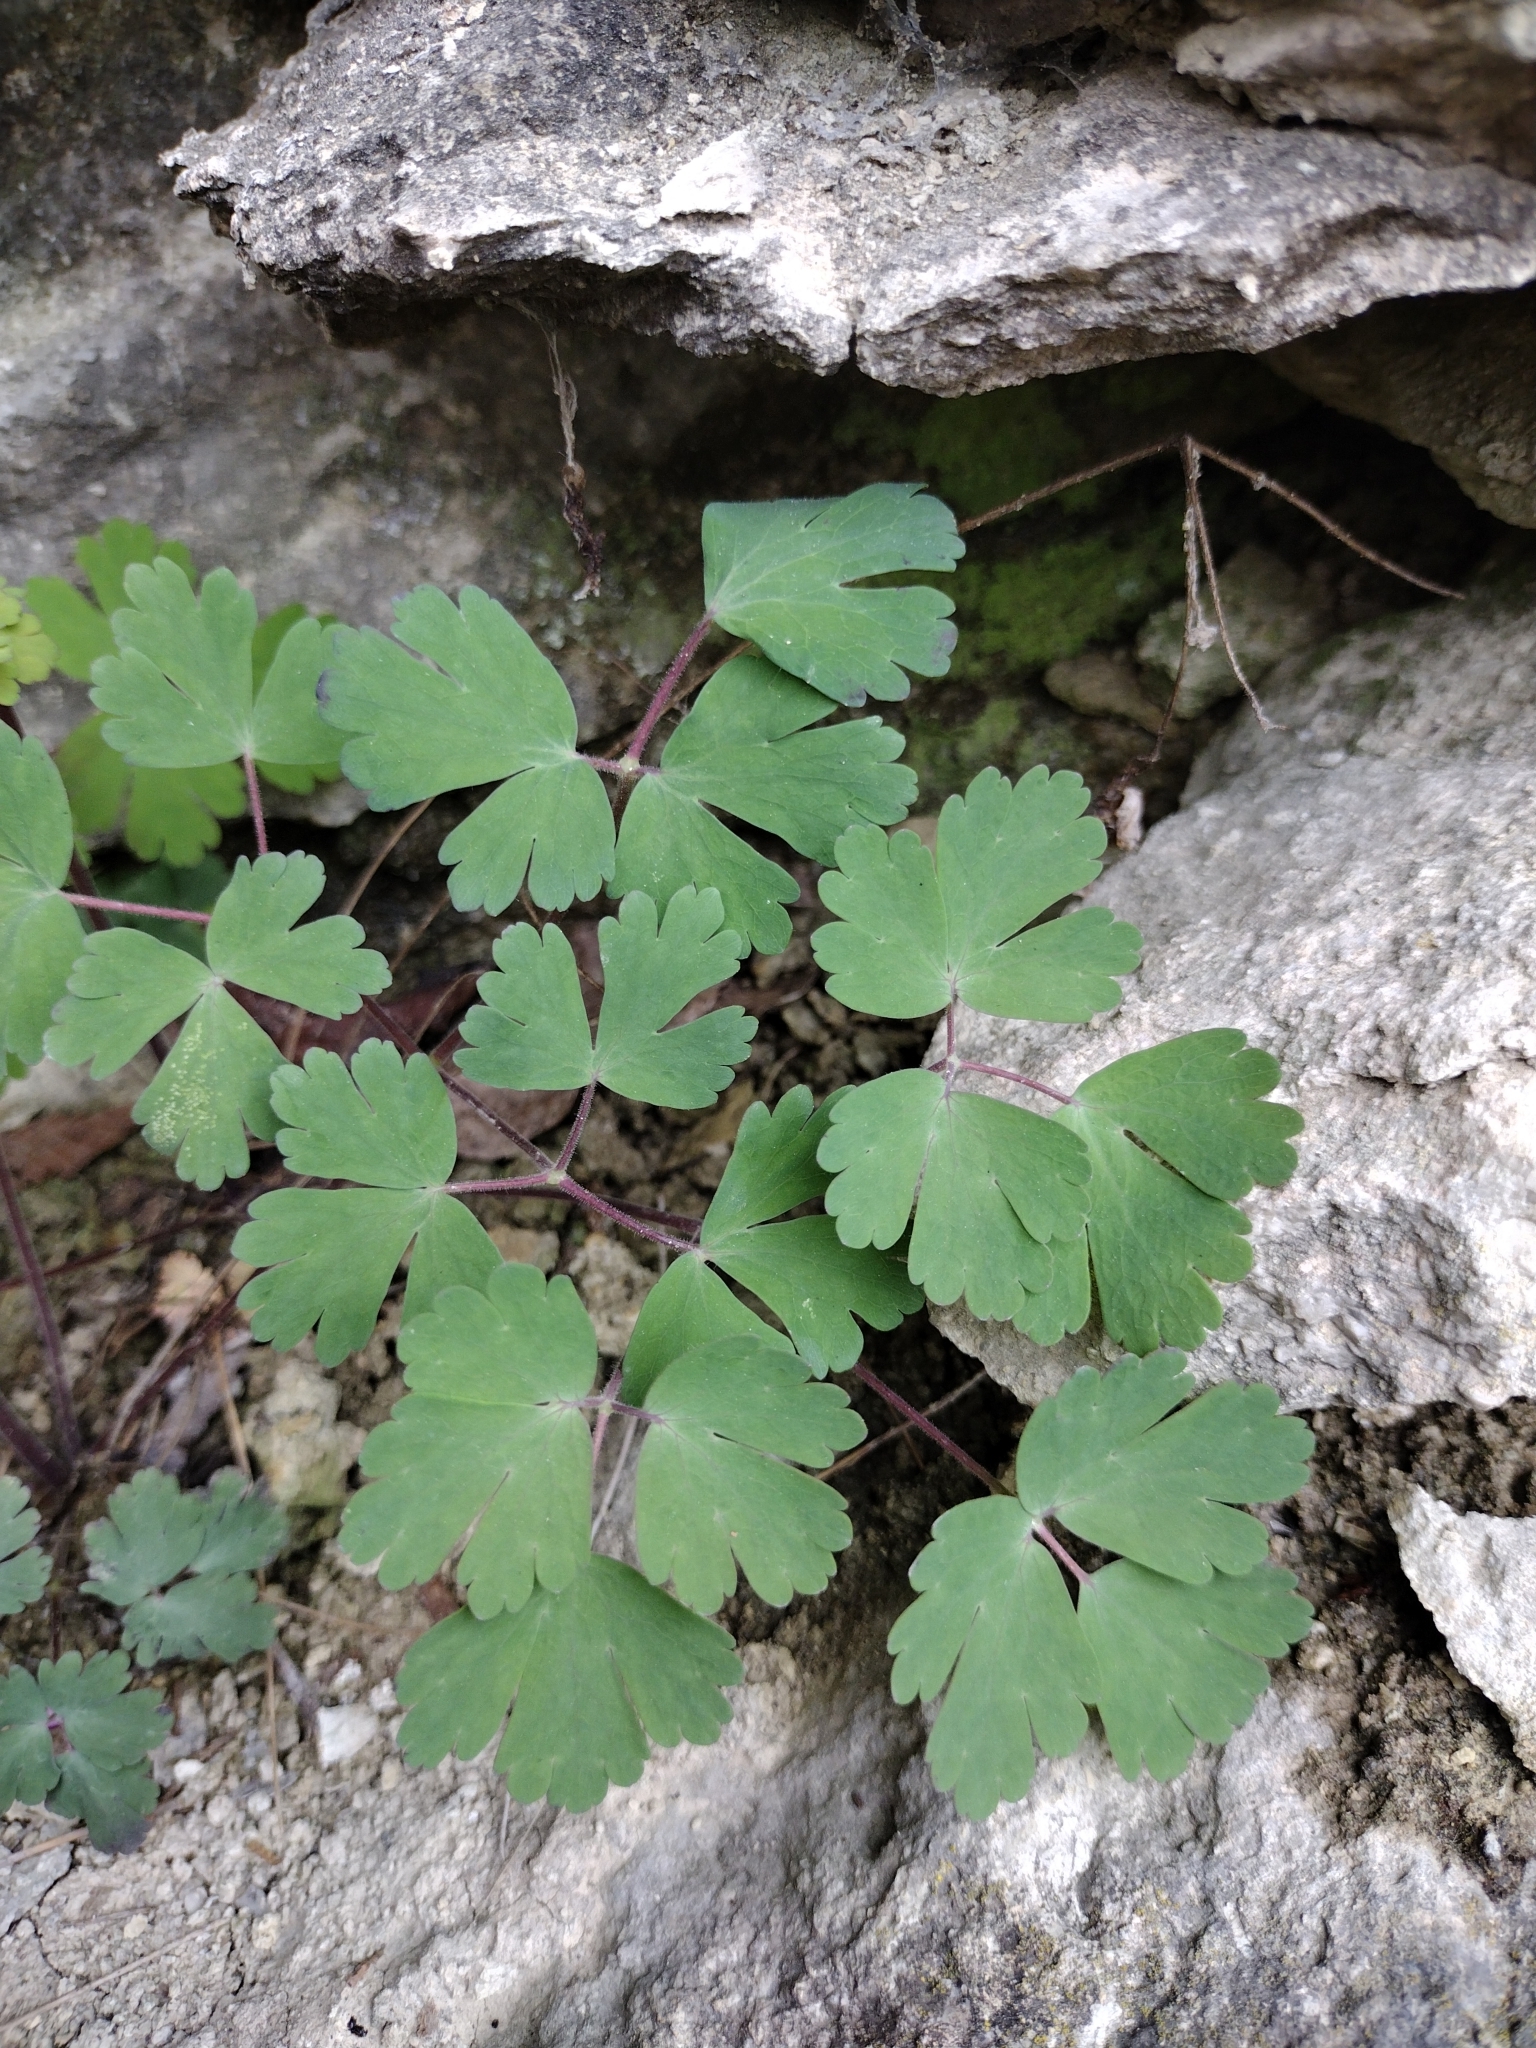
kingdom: Plantae
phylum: Tracheophyta
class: Magnoliopsida
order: Ranunculales
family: Ranunculaceae
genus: Aquilegia
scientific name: Aquilegia canadensis
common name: American columbine
